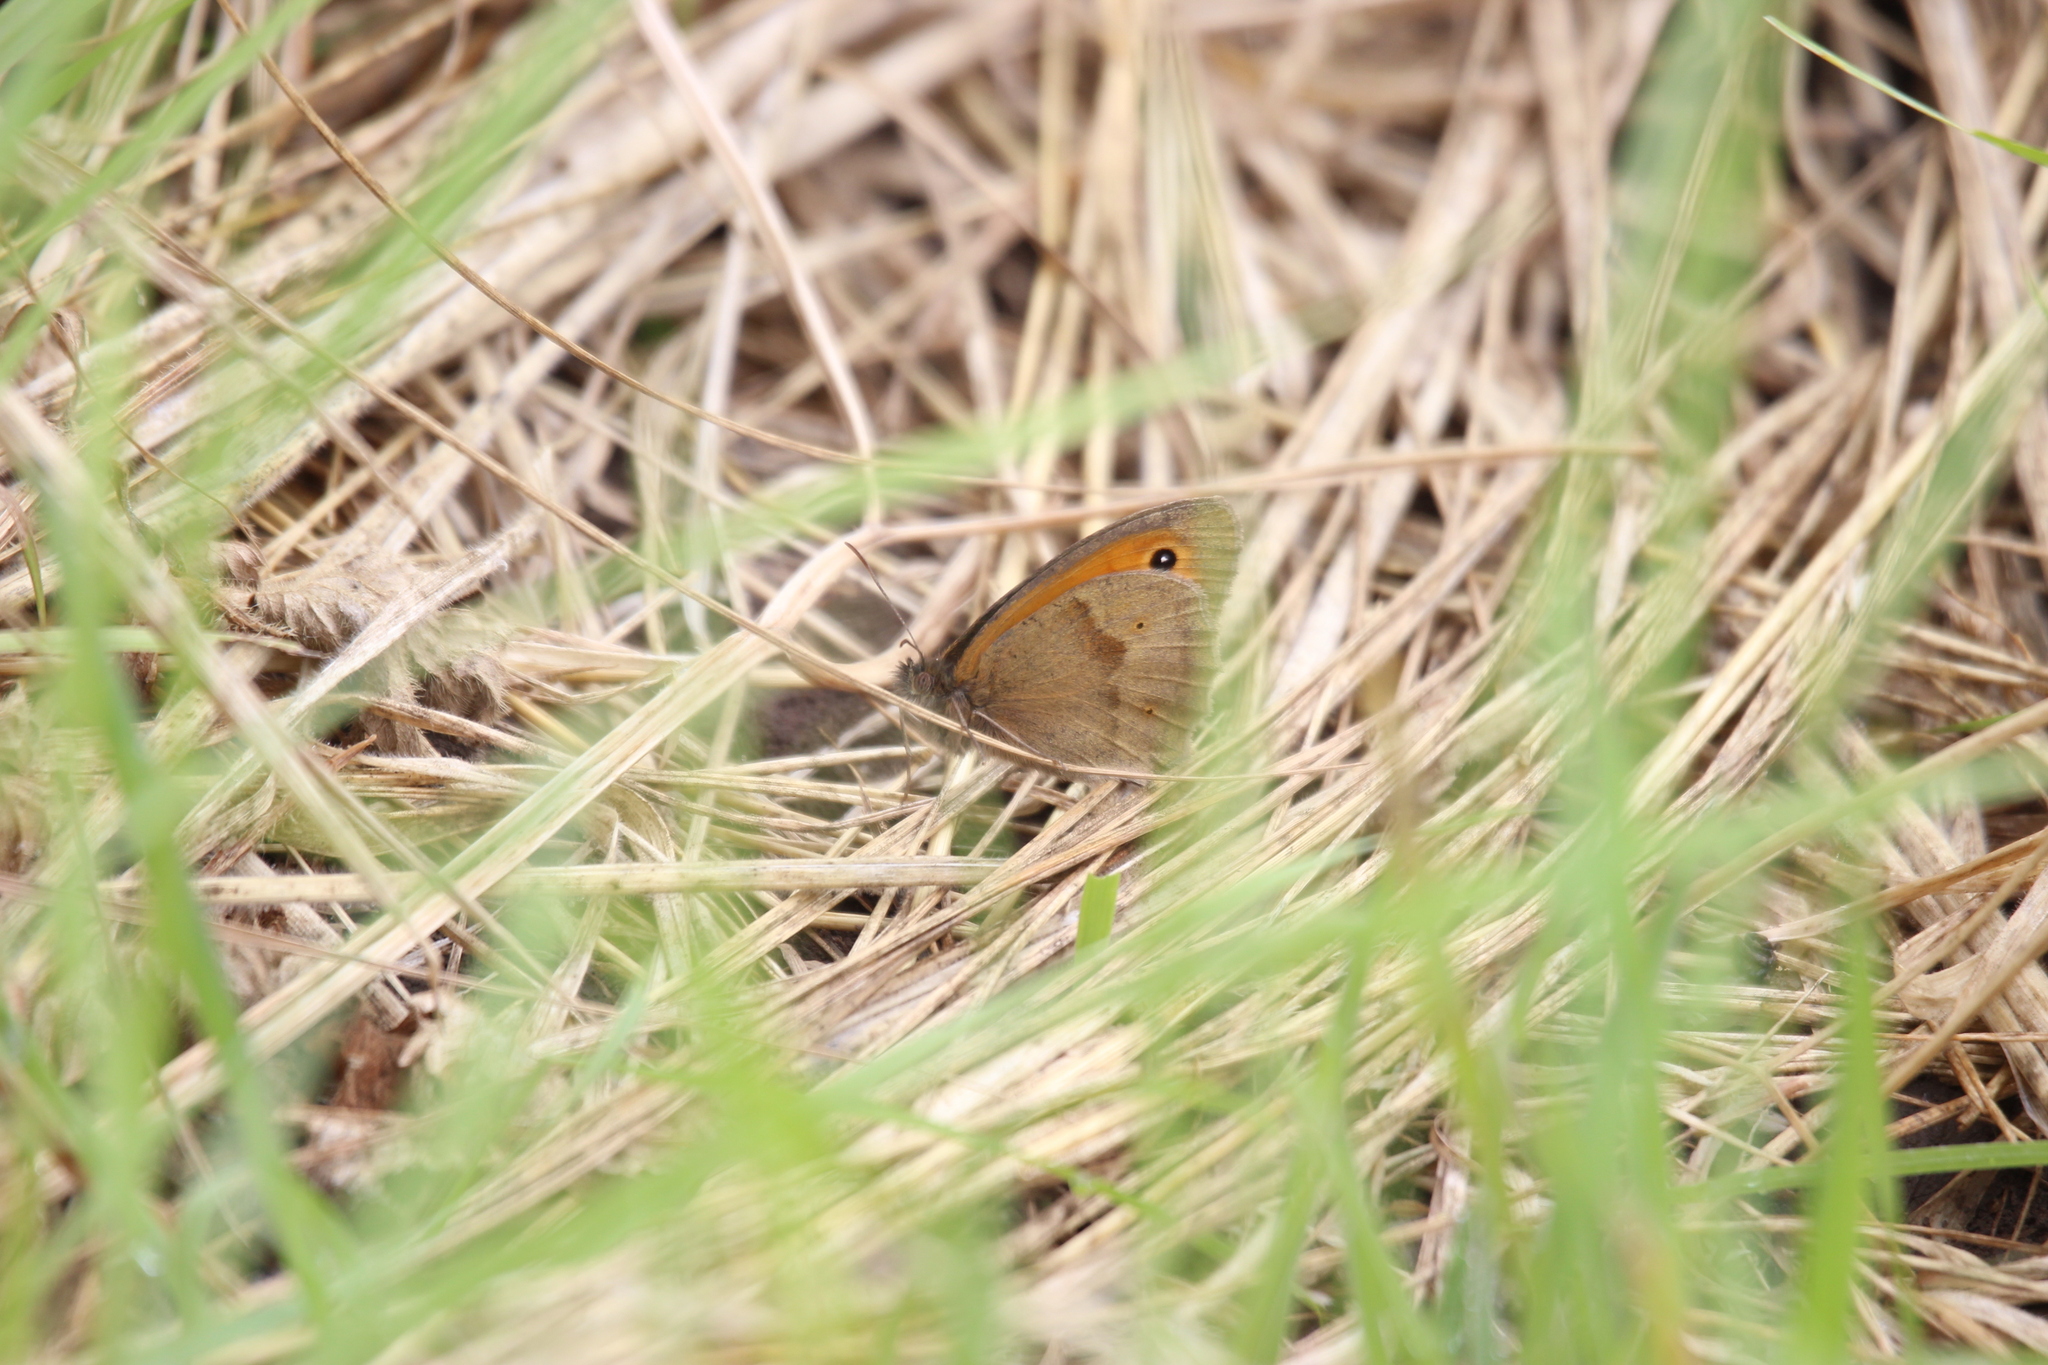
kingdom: Animalia
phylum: Arthropoda
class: Insecta
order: Lepidoptera
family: Nymphalidae
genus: Maniola
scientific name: Maniola jurtina
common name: Meadow brown
